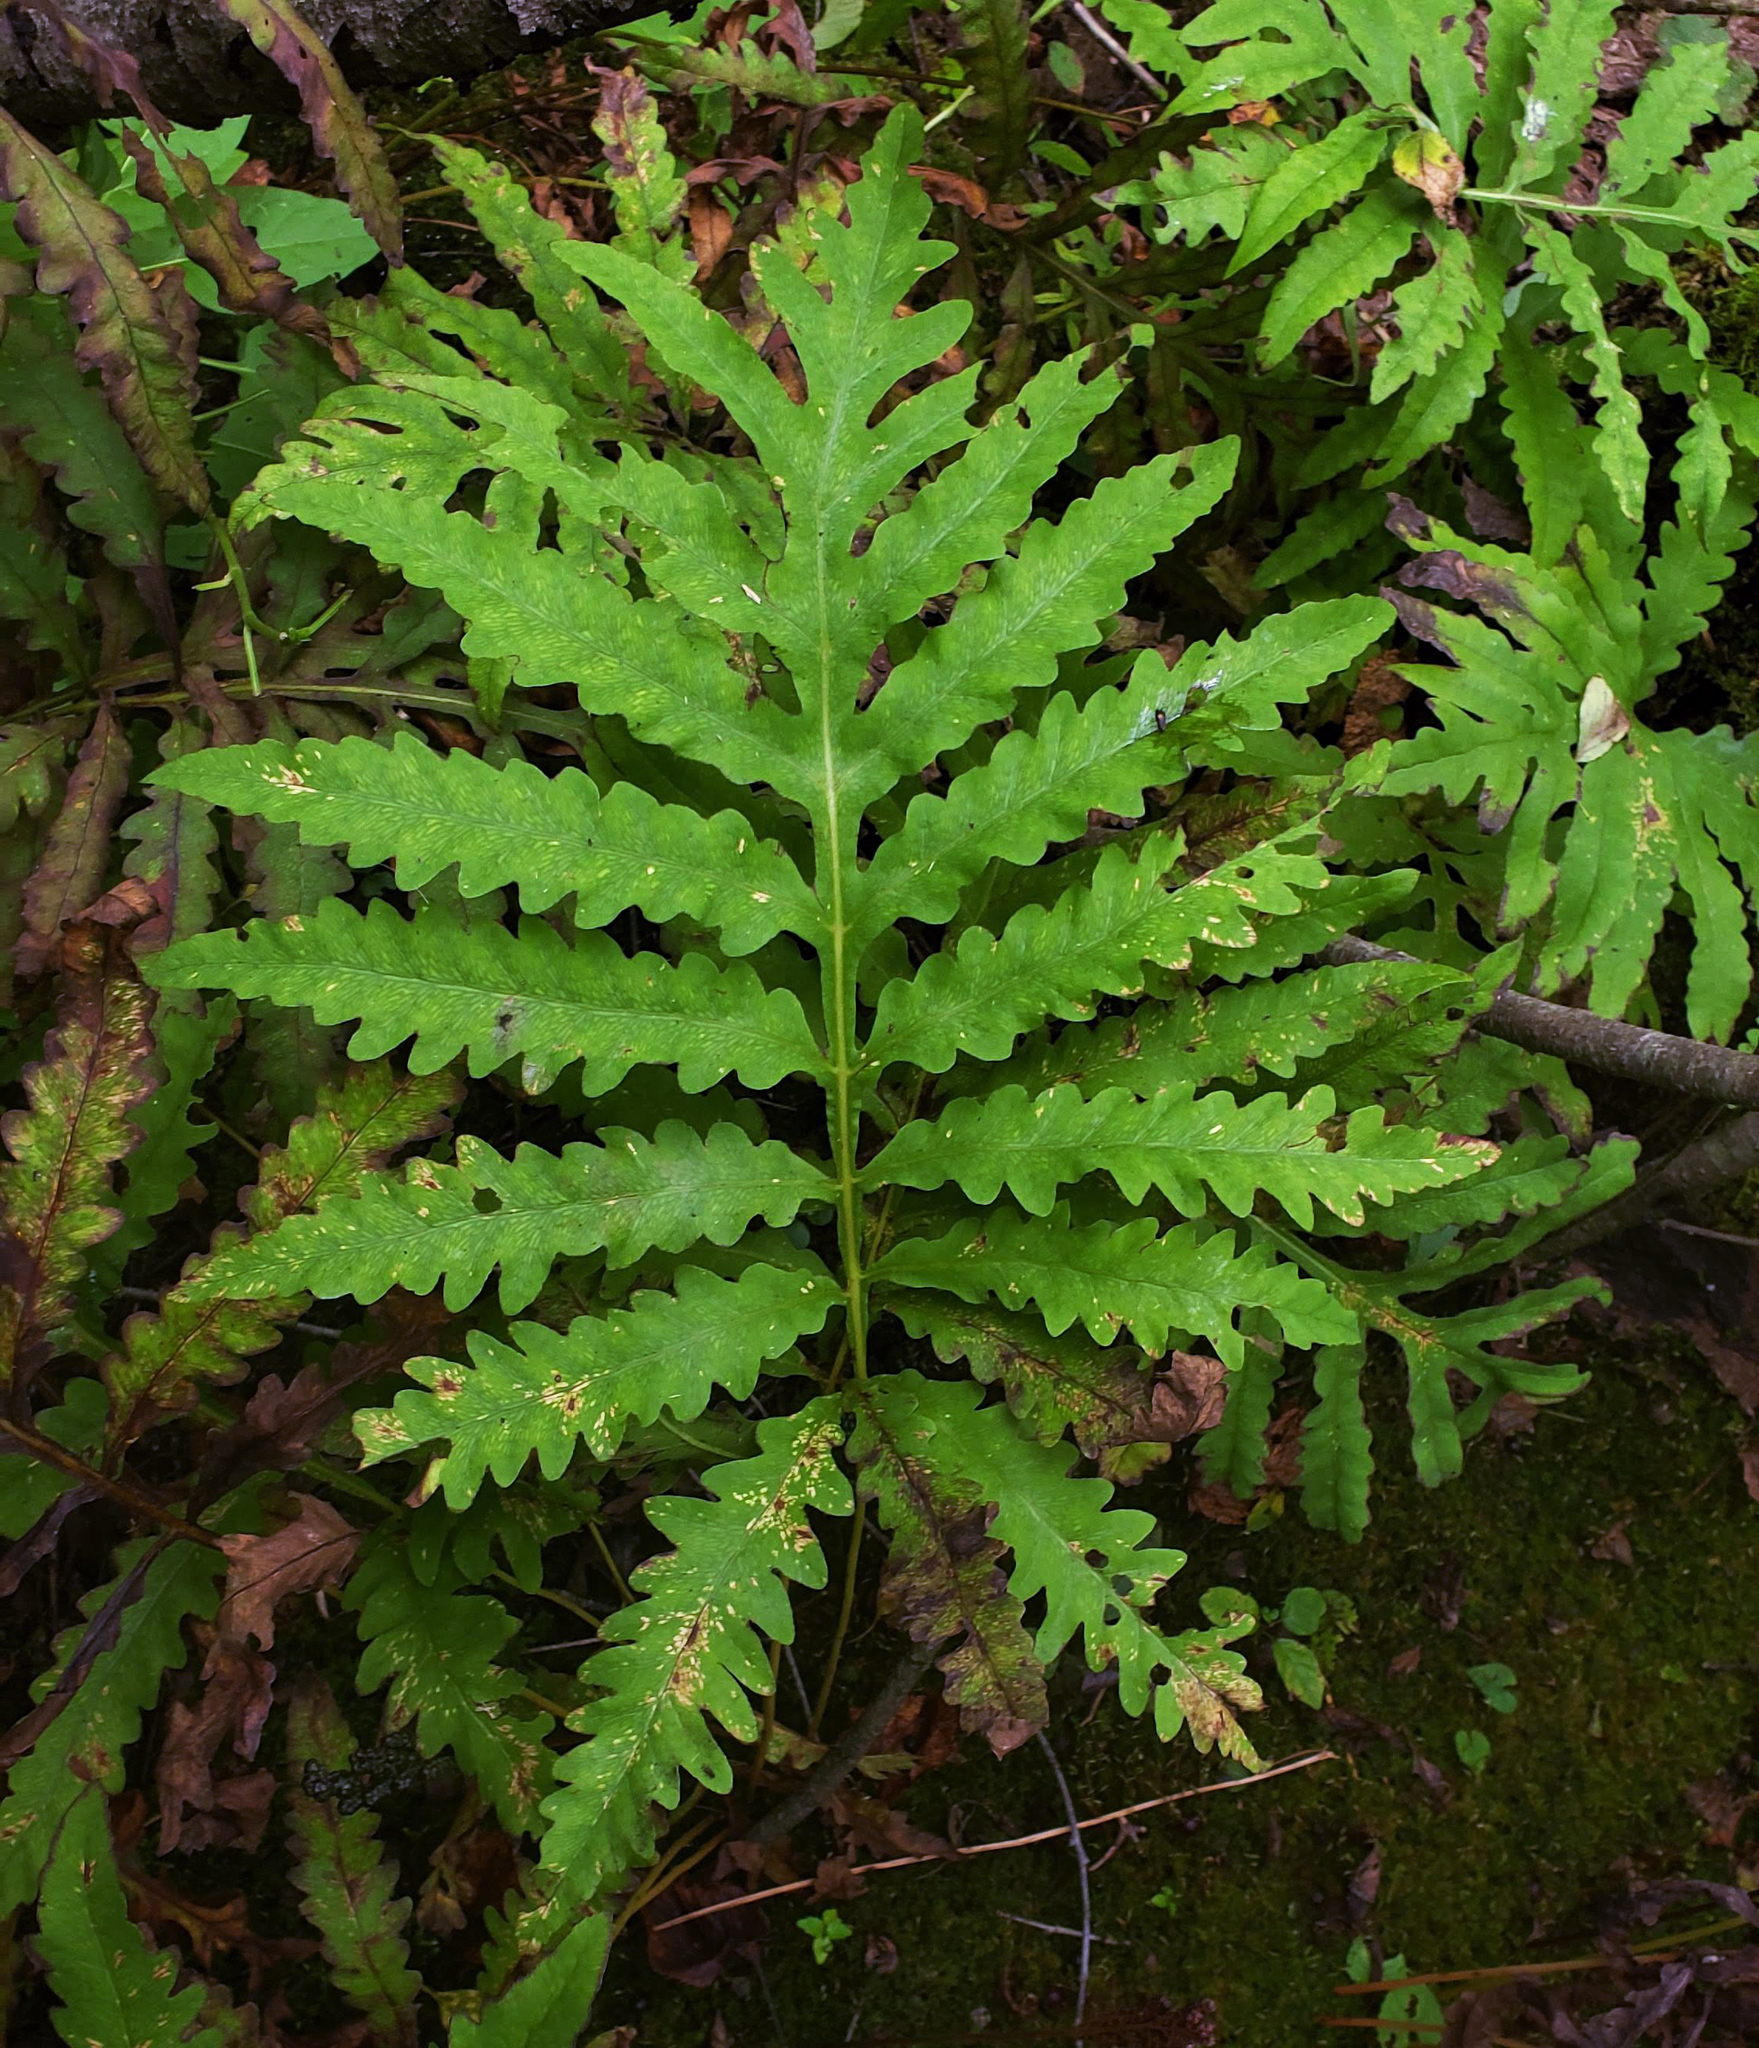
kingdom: Plantae
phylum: Tracheophyta
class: Polypodiopsida
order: Polypodiales
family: Onocleaceae
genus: Onoclea
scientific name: Onoclea sensibilis
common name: Sensitive fern
